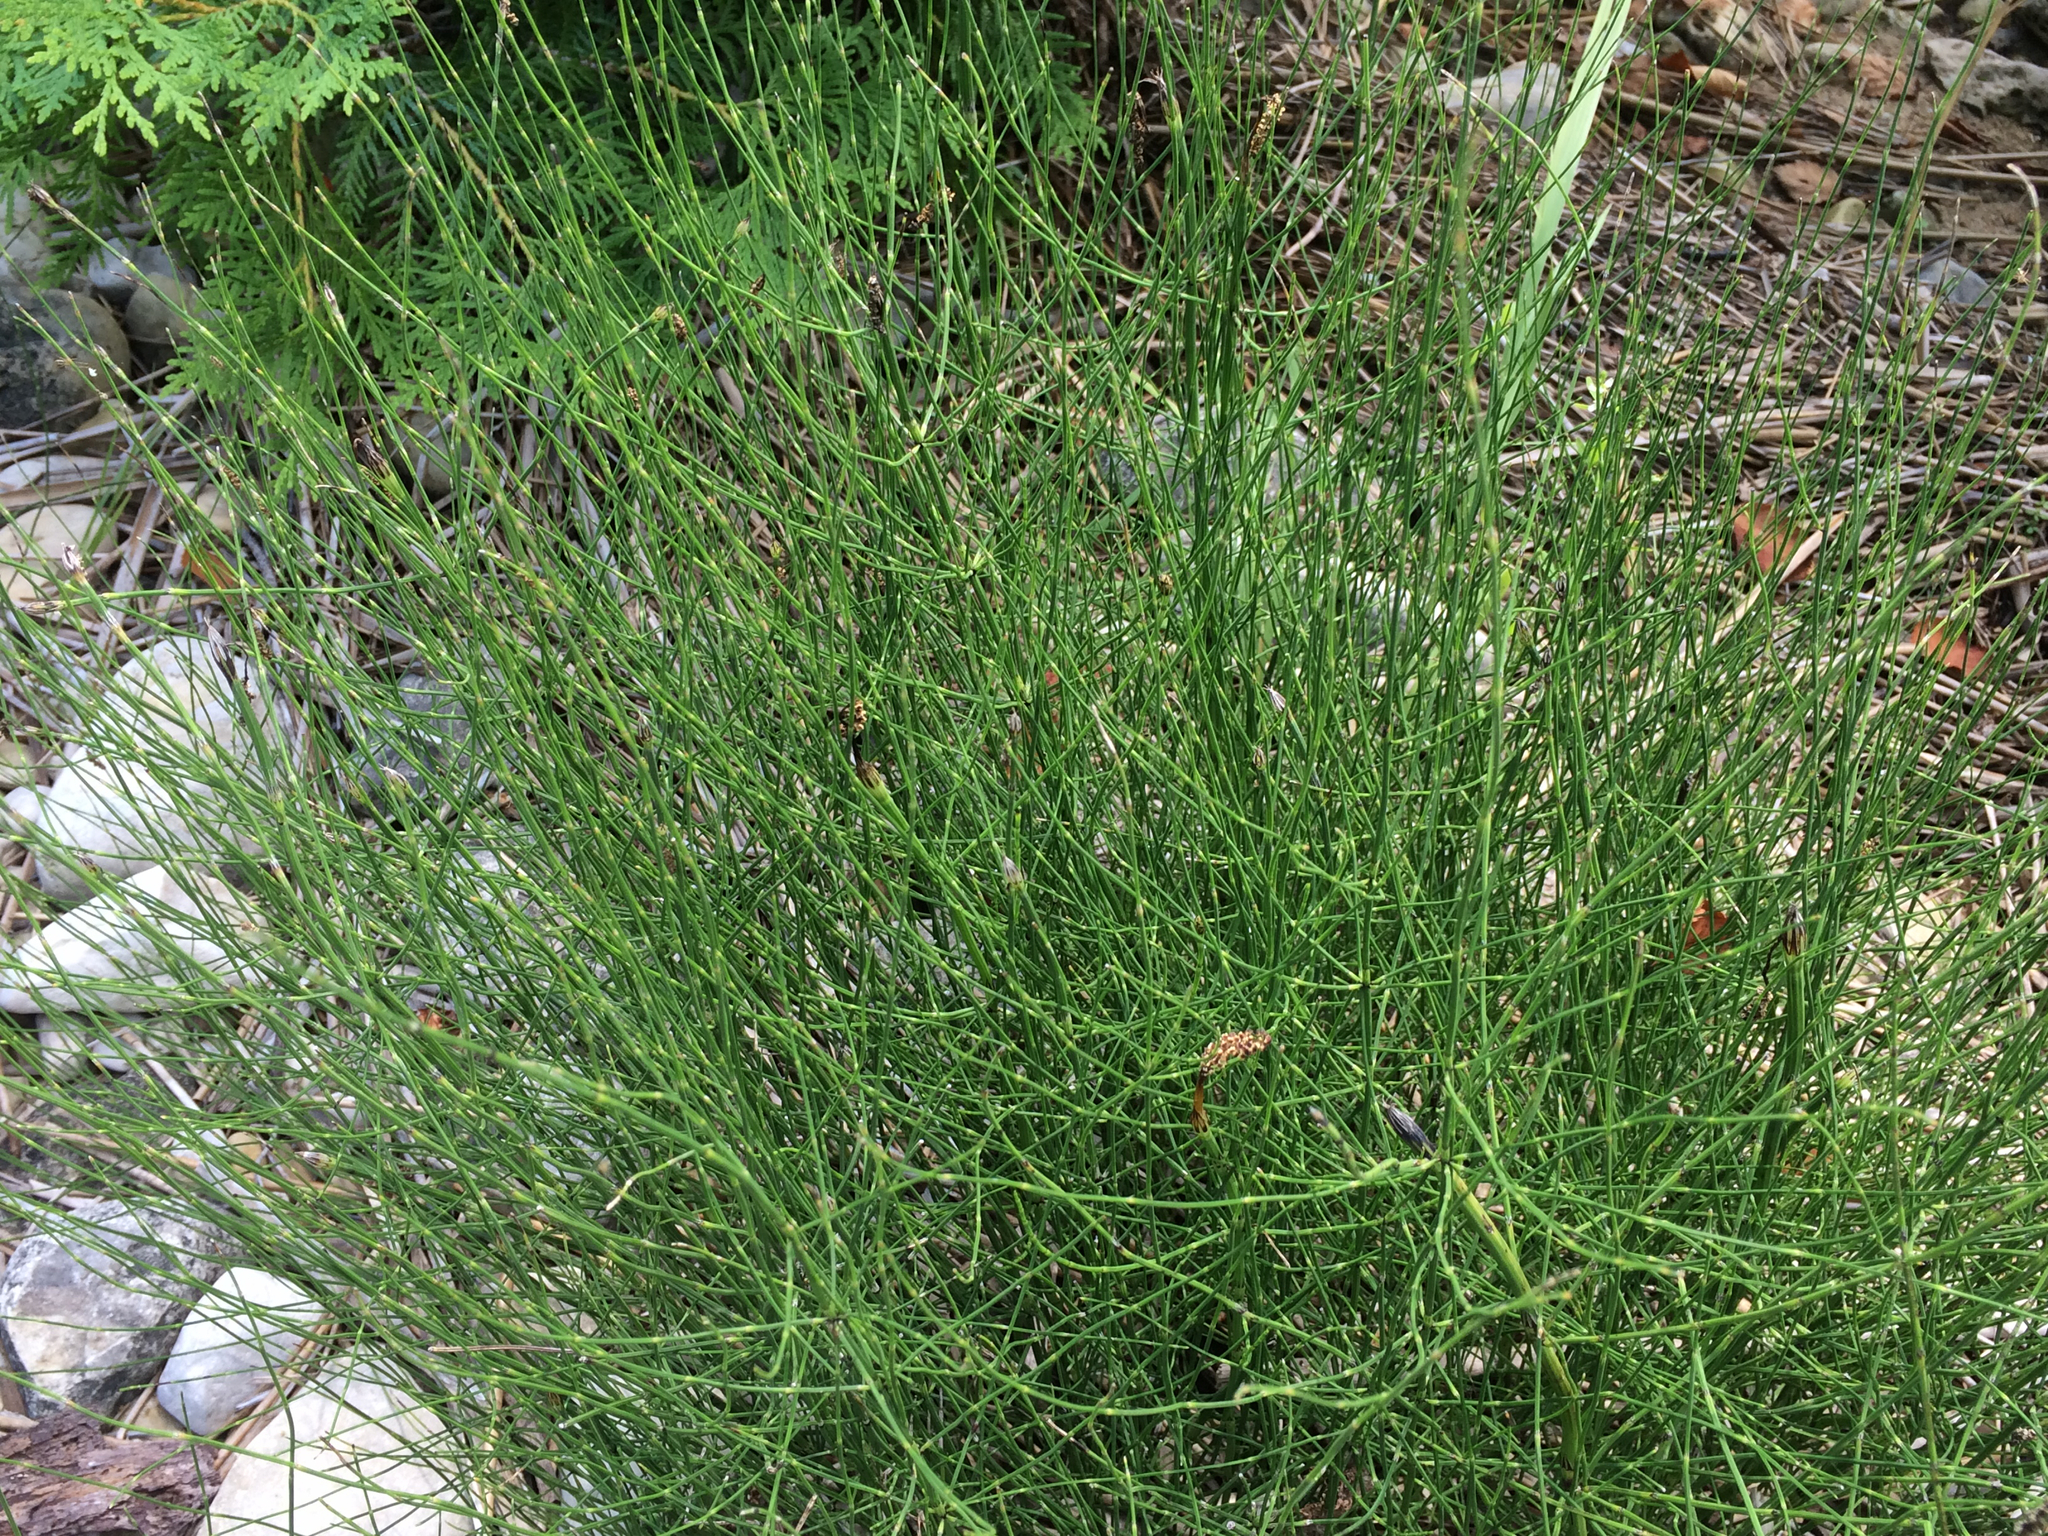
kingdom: Plantae
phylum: Tracheophyta
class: Polypodiopsida
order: Equisetales
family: Equisetaceae
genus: Equisetum
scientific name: Equisetum palustre
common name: Marsh horsetail
